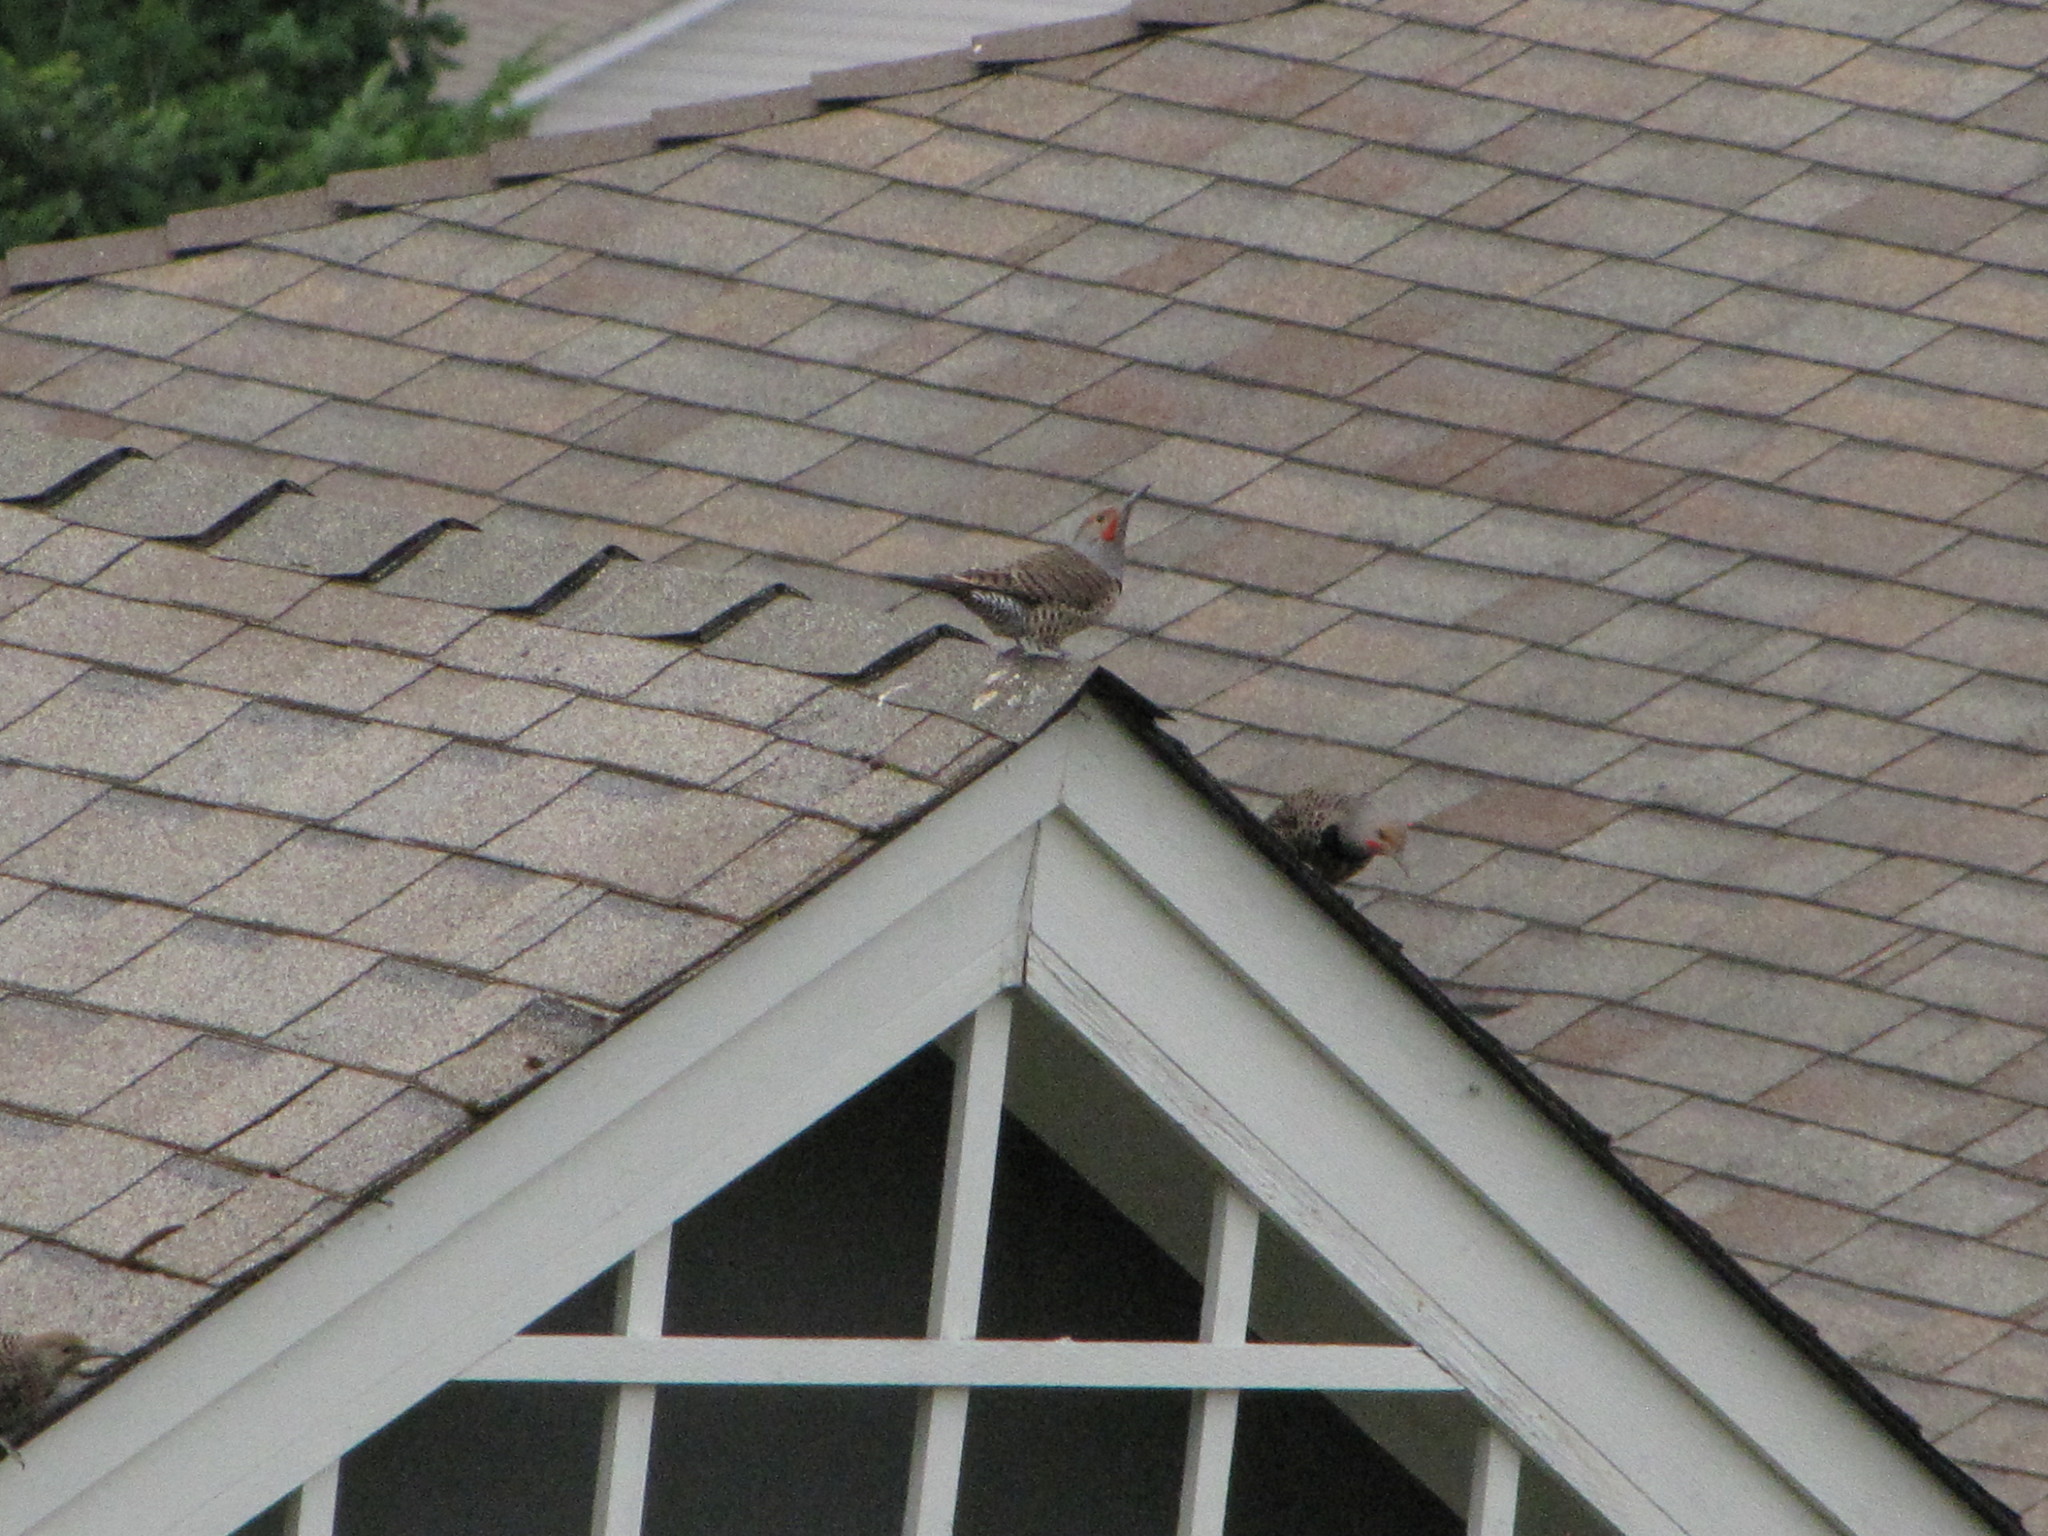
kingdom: Animalia
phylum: Chordata
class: Aves
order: Piciformes
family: Picidae
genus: Colaptes
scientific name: Colaptes auratus
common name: Northern flicker
